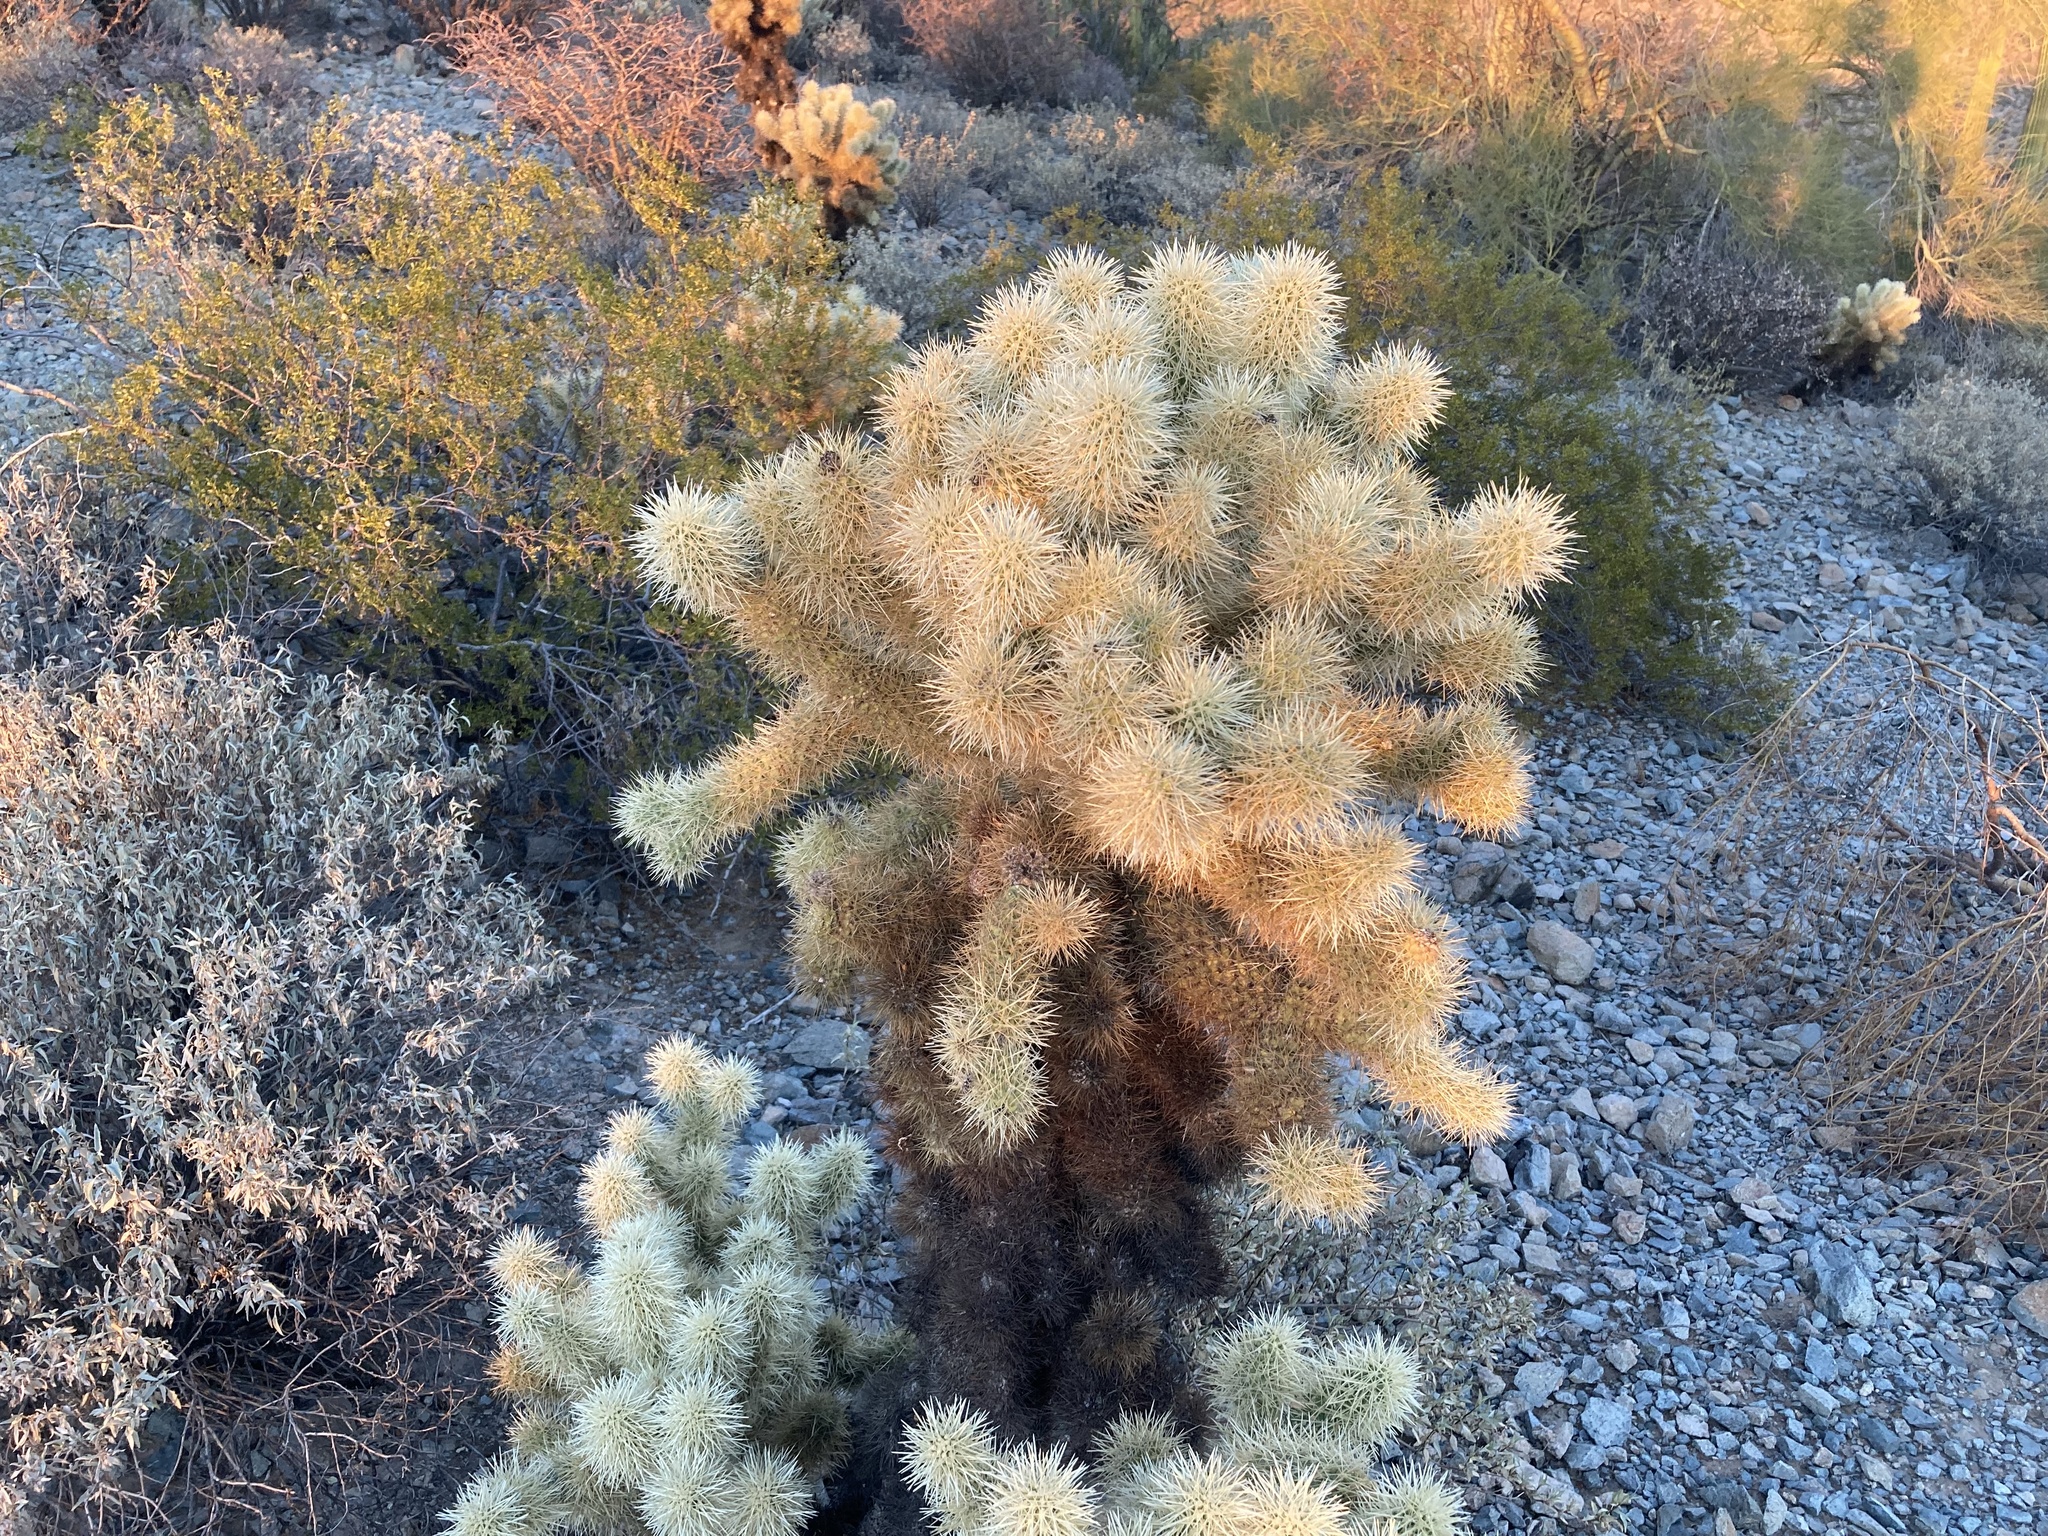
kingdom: Plantae
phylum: Tracheophyta
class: Magnoliopsida
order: Caryophyllales
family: Cactaceae
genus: Cylindropuntia
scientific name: Cylindropuntia fosbergii
